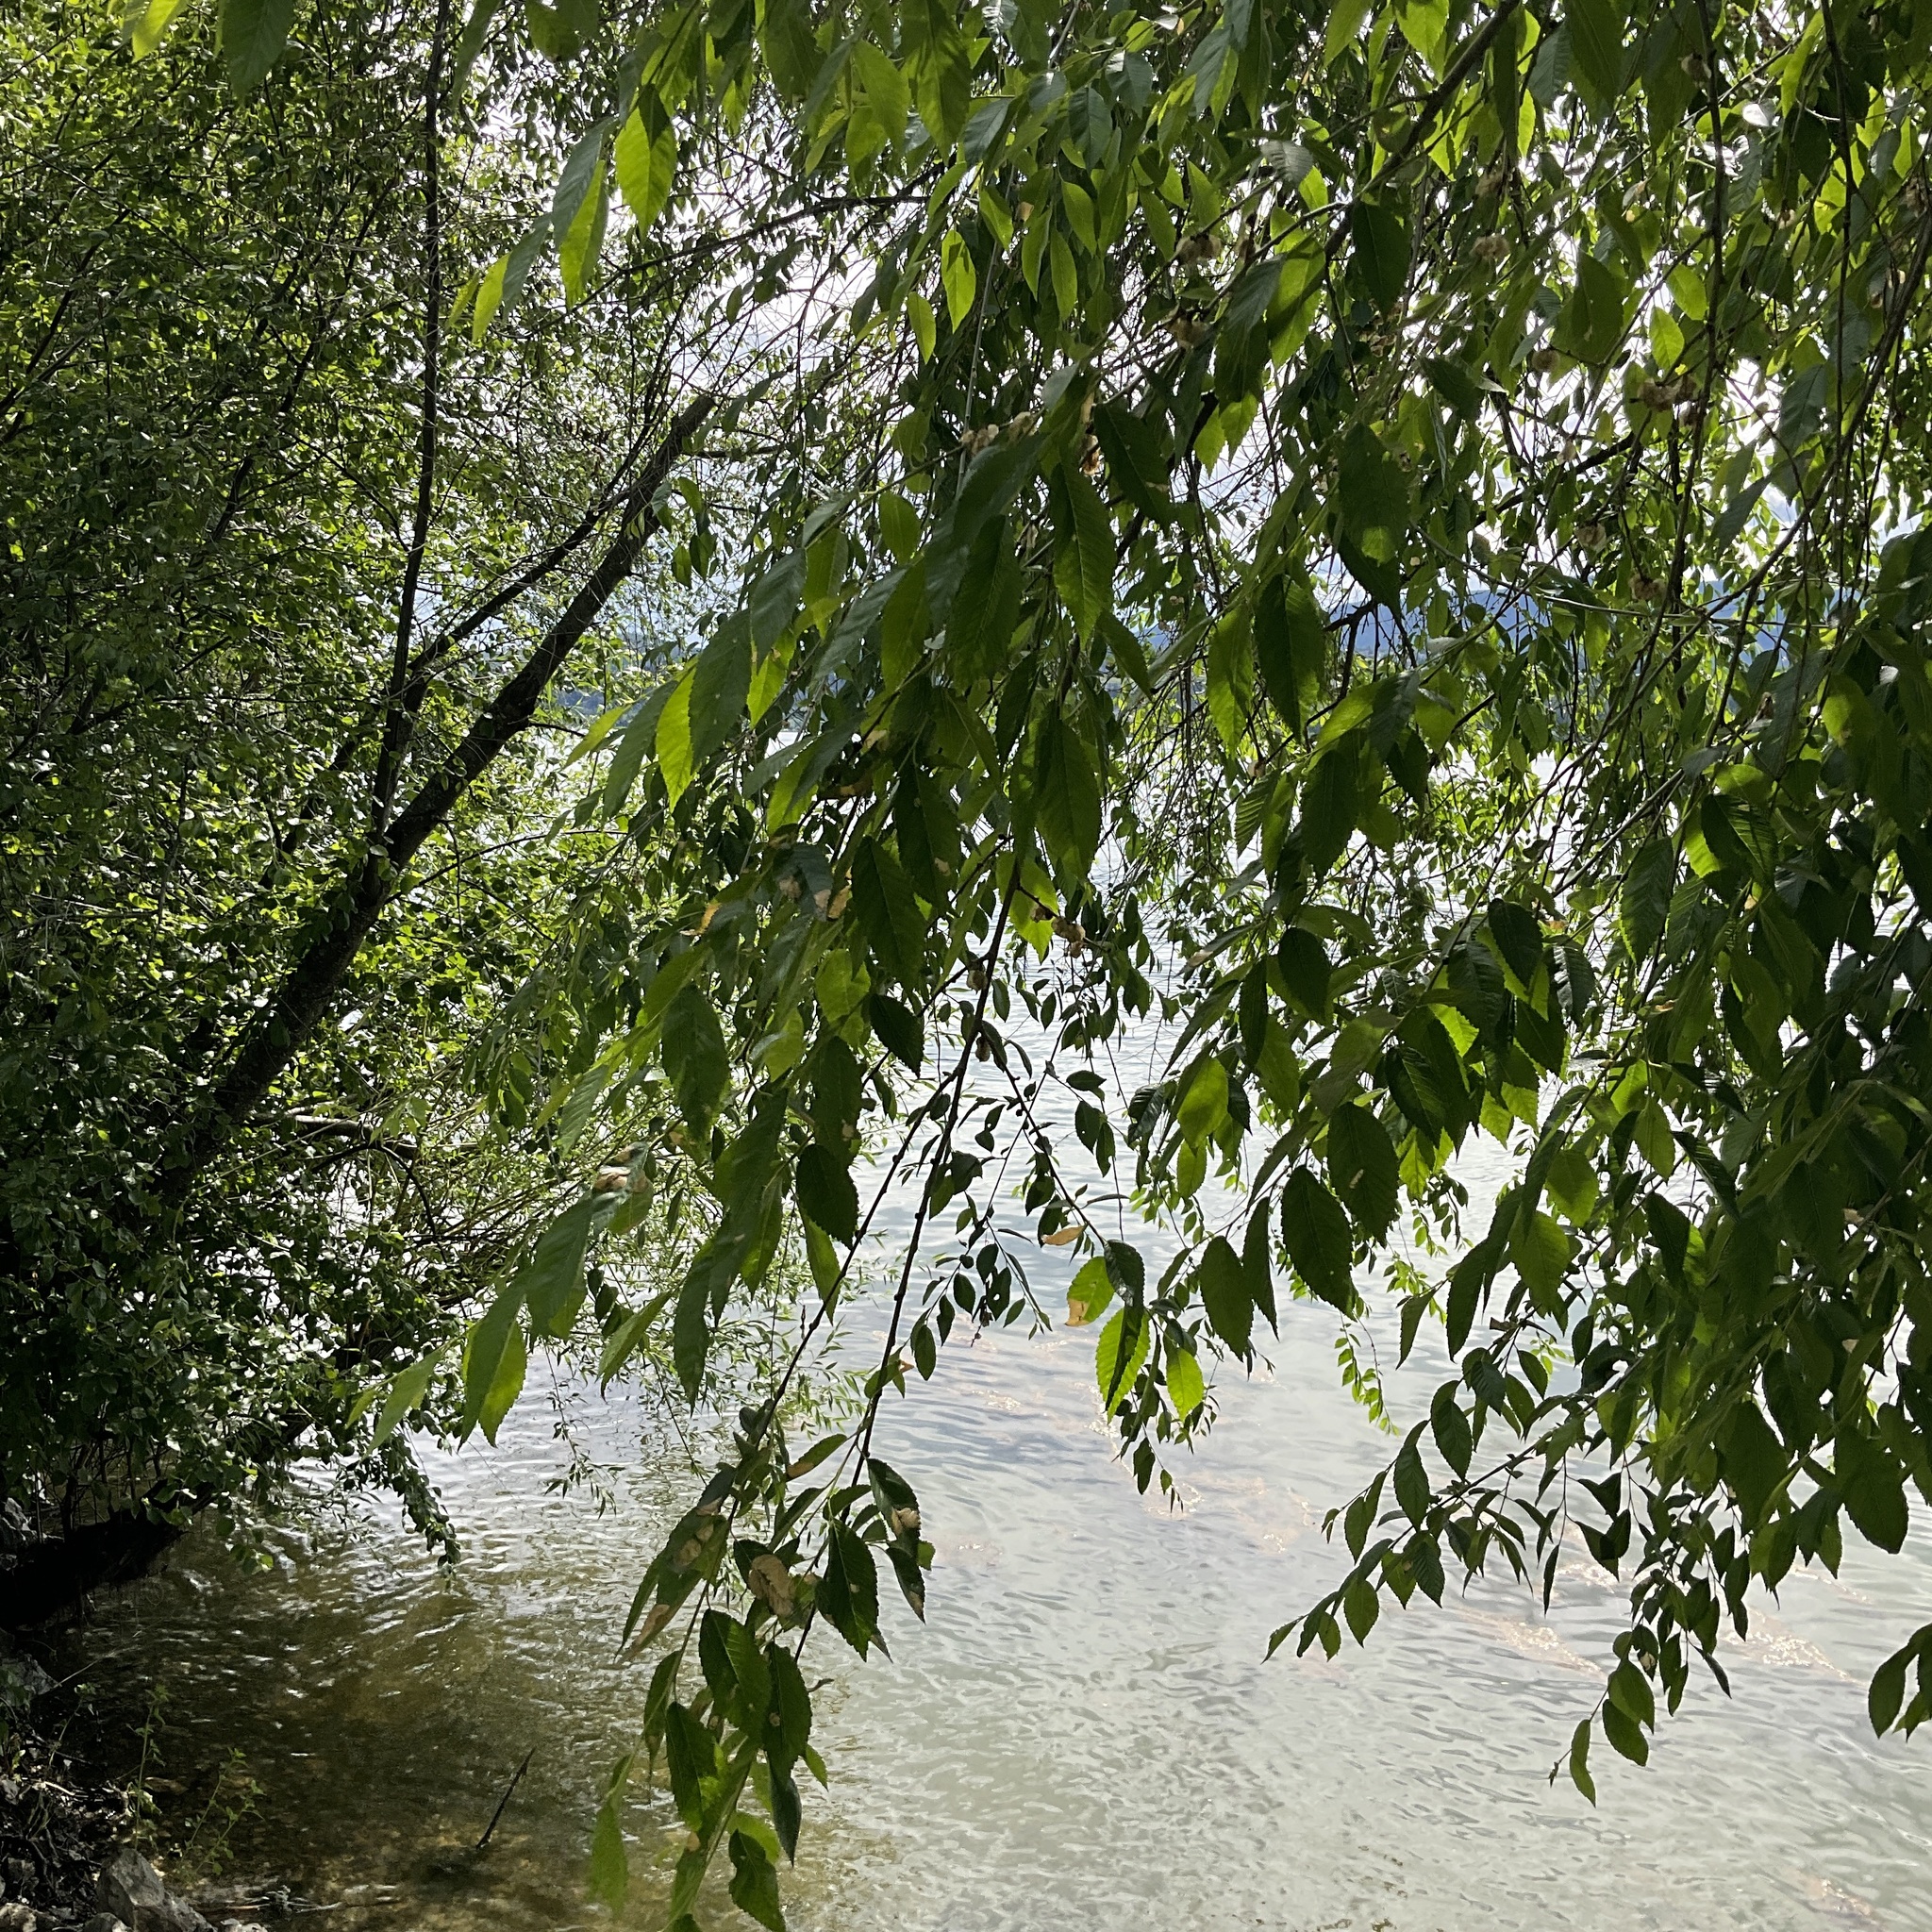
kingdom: Plantae
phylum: Tracheophyta
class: Magnoliopsida
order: Rosales
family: Ulmaceae
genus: Ulmus
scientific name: Ulmus pumila
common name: Siberian elm
